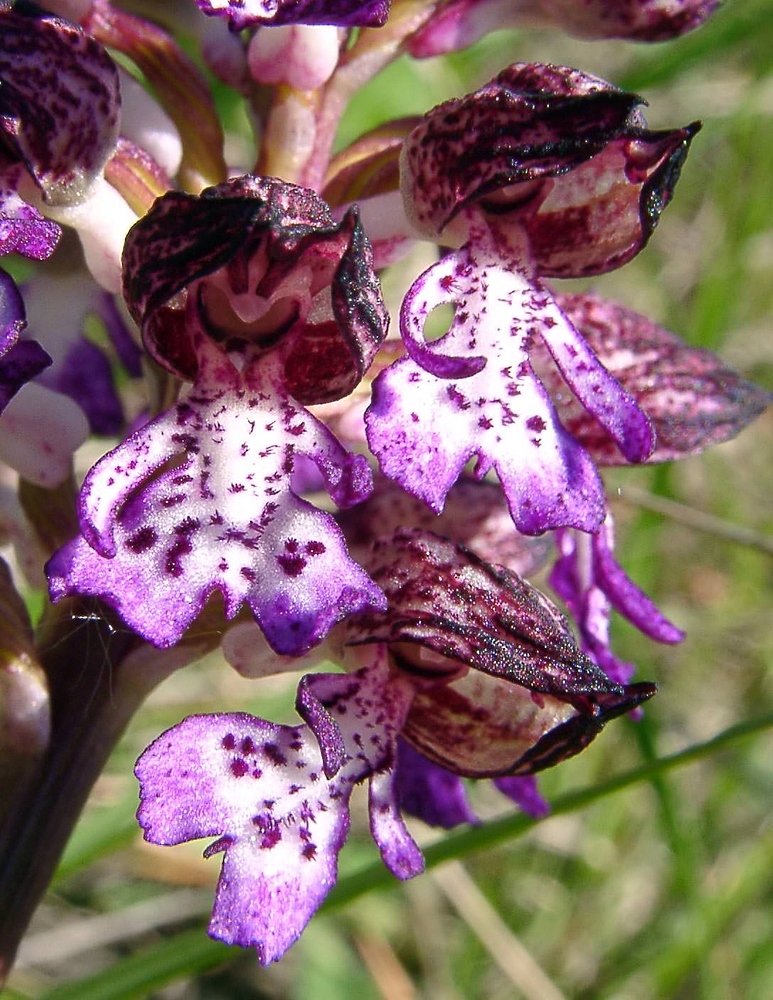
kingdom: Plantae
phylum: Tracheophyta
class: Liliopsida
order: Asparagales
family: Orchidaceae
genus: Orchis
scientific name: Orchis purpurea
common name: Lady orchid
